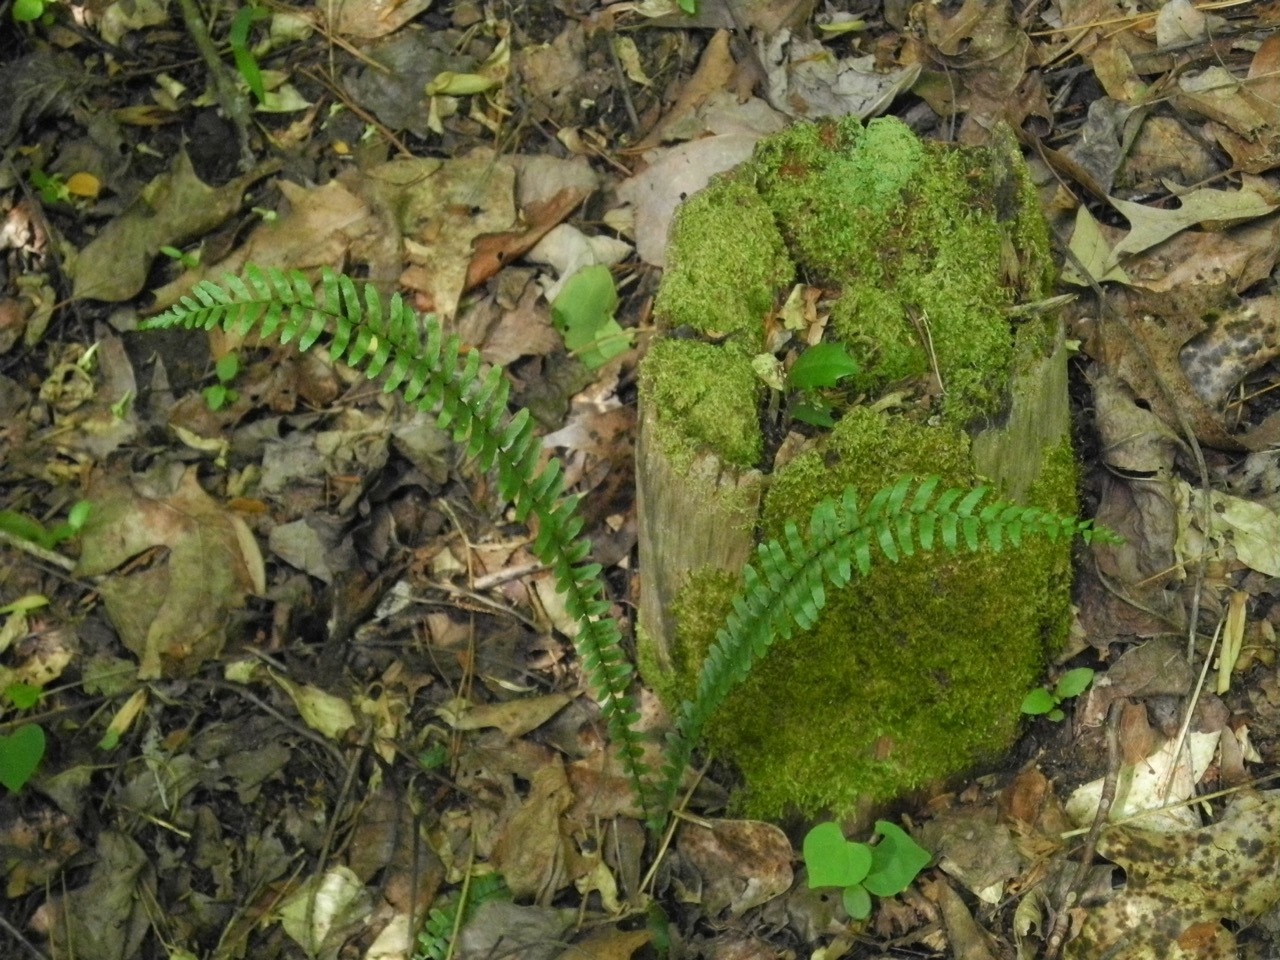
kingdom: Plantae
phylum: Tracheophyta
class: Polypodiopsida
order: Polypodiales
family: Aspleniaceae
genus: Asplenium
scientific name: Asplenium platyneuron
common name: Ebony spleenwort
